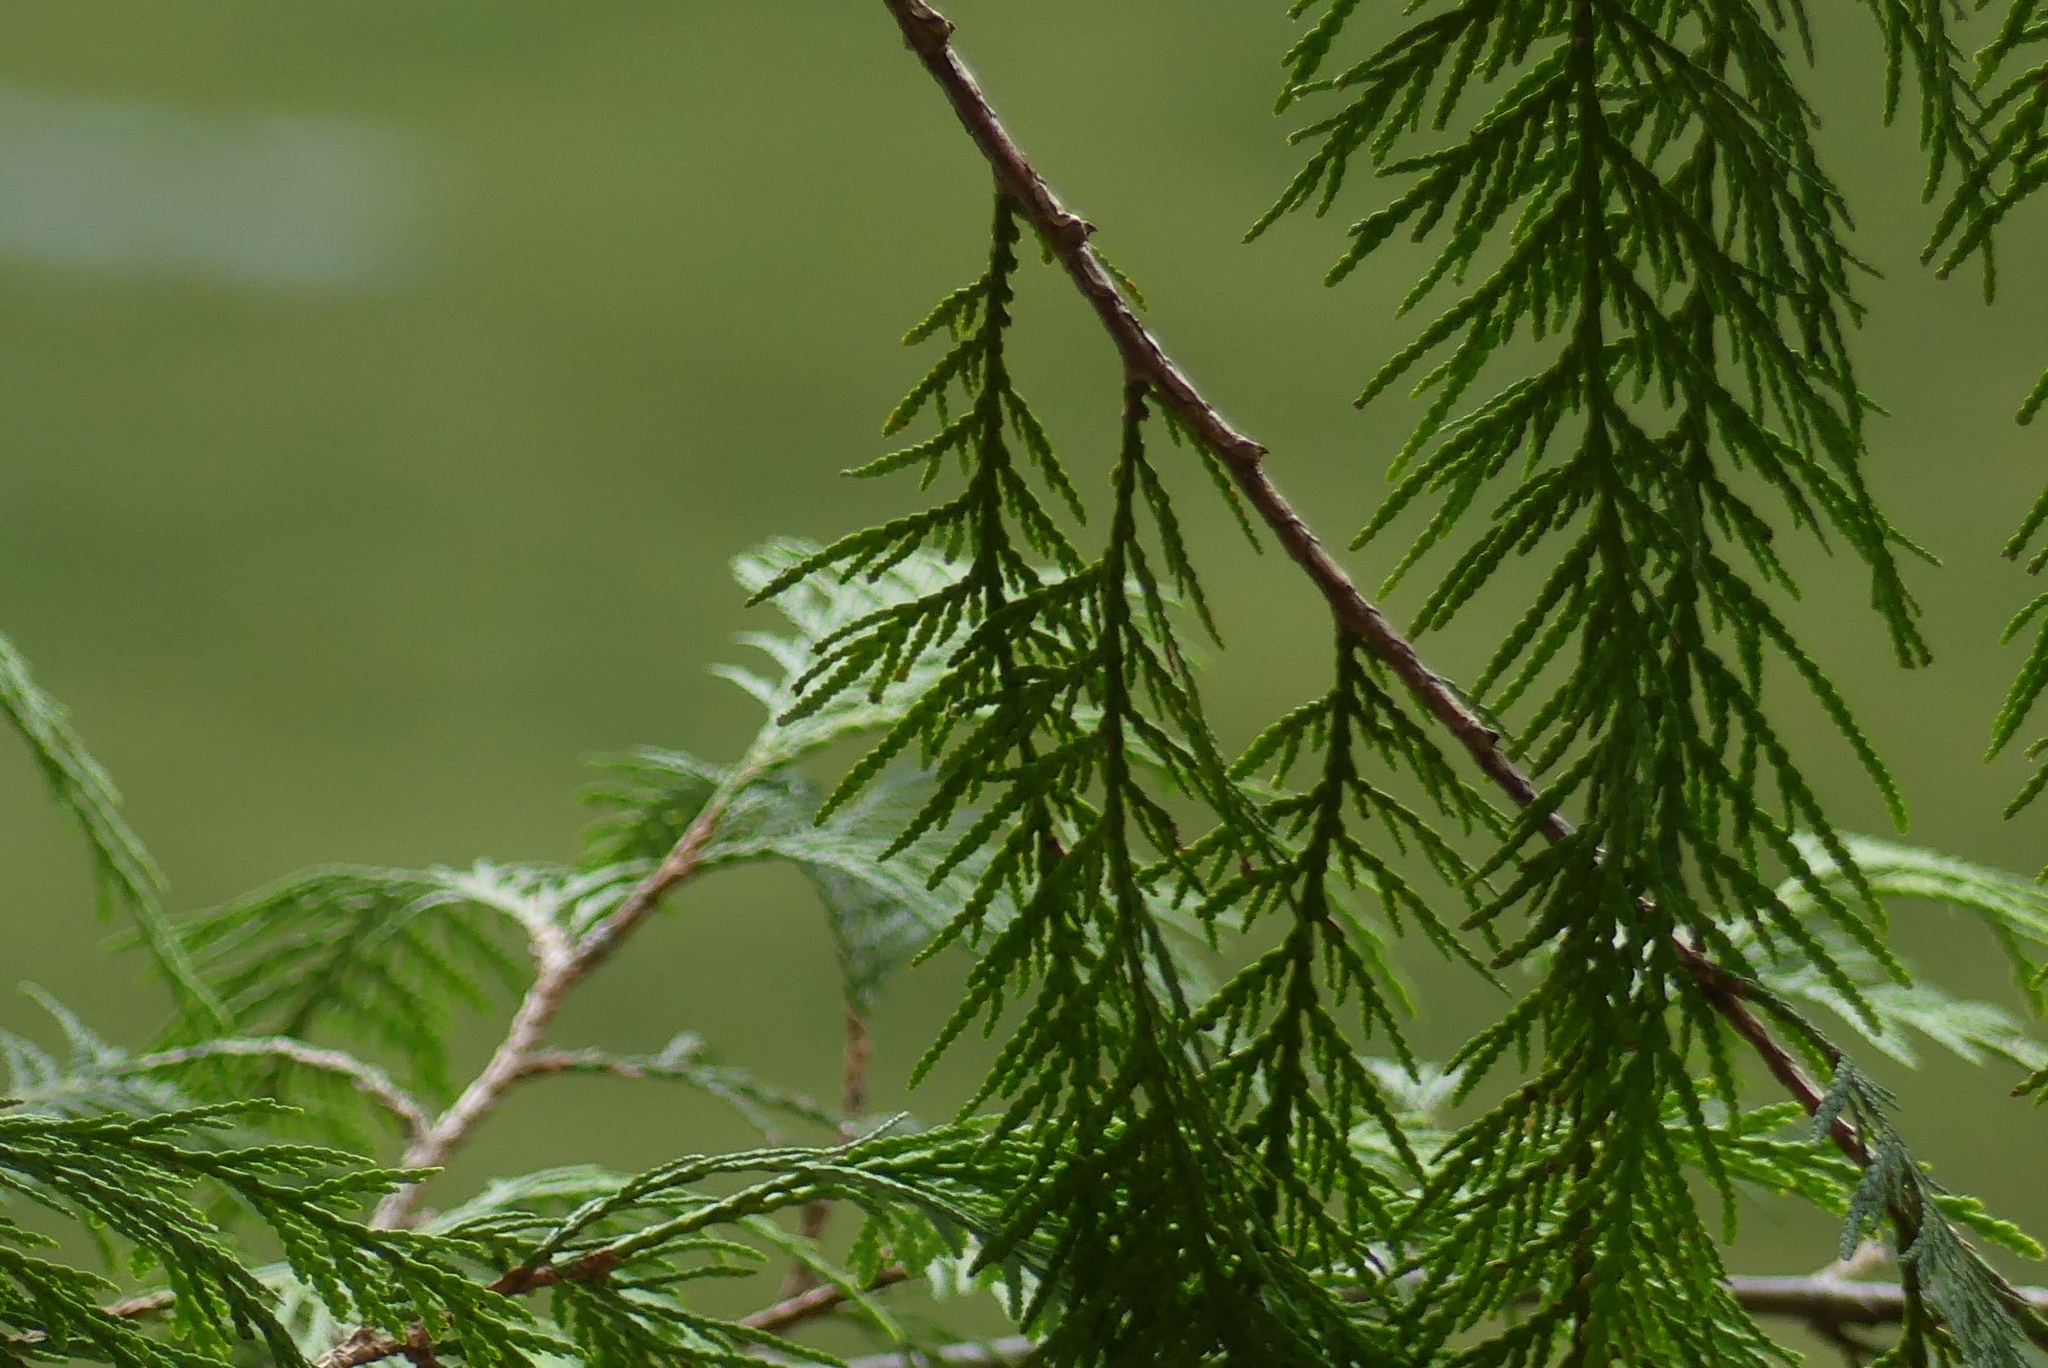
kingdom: Plantae
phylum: Tracheophyta
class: Pinopsida
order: Pinales
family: Cupressaceae
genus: Thuja
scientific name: Thuja plicata
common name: Western red-cedar
